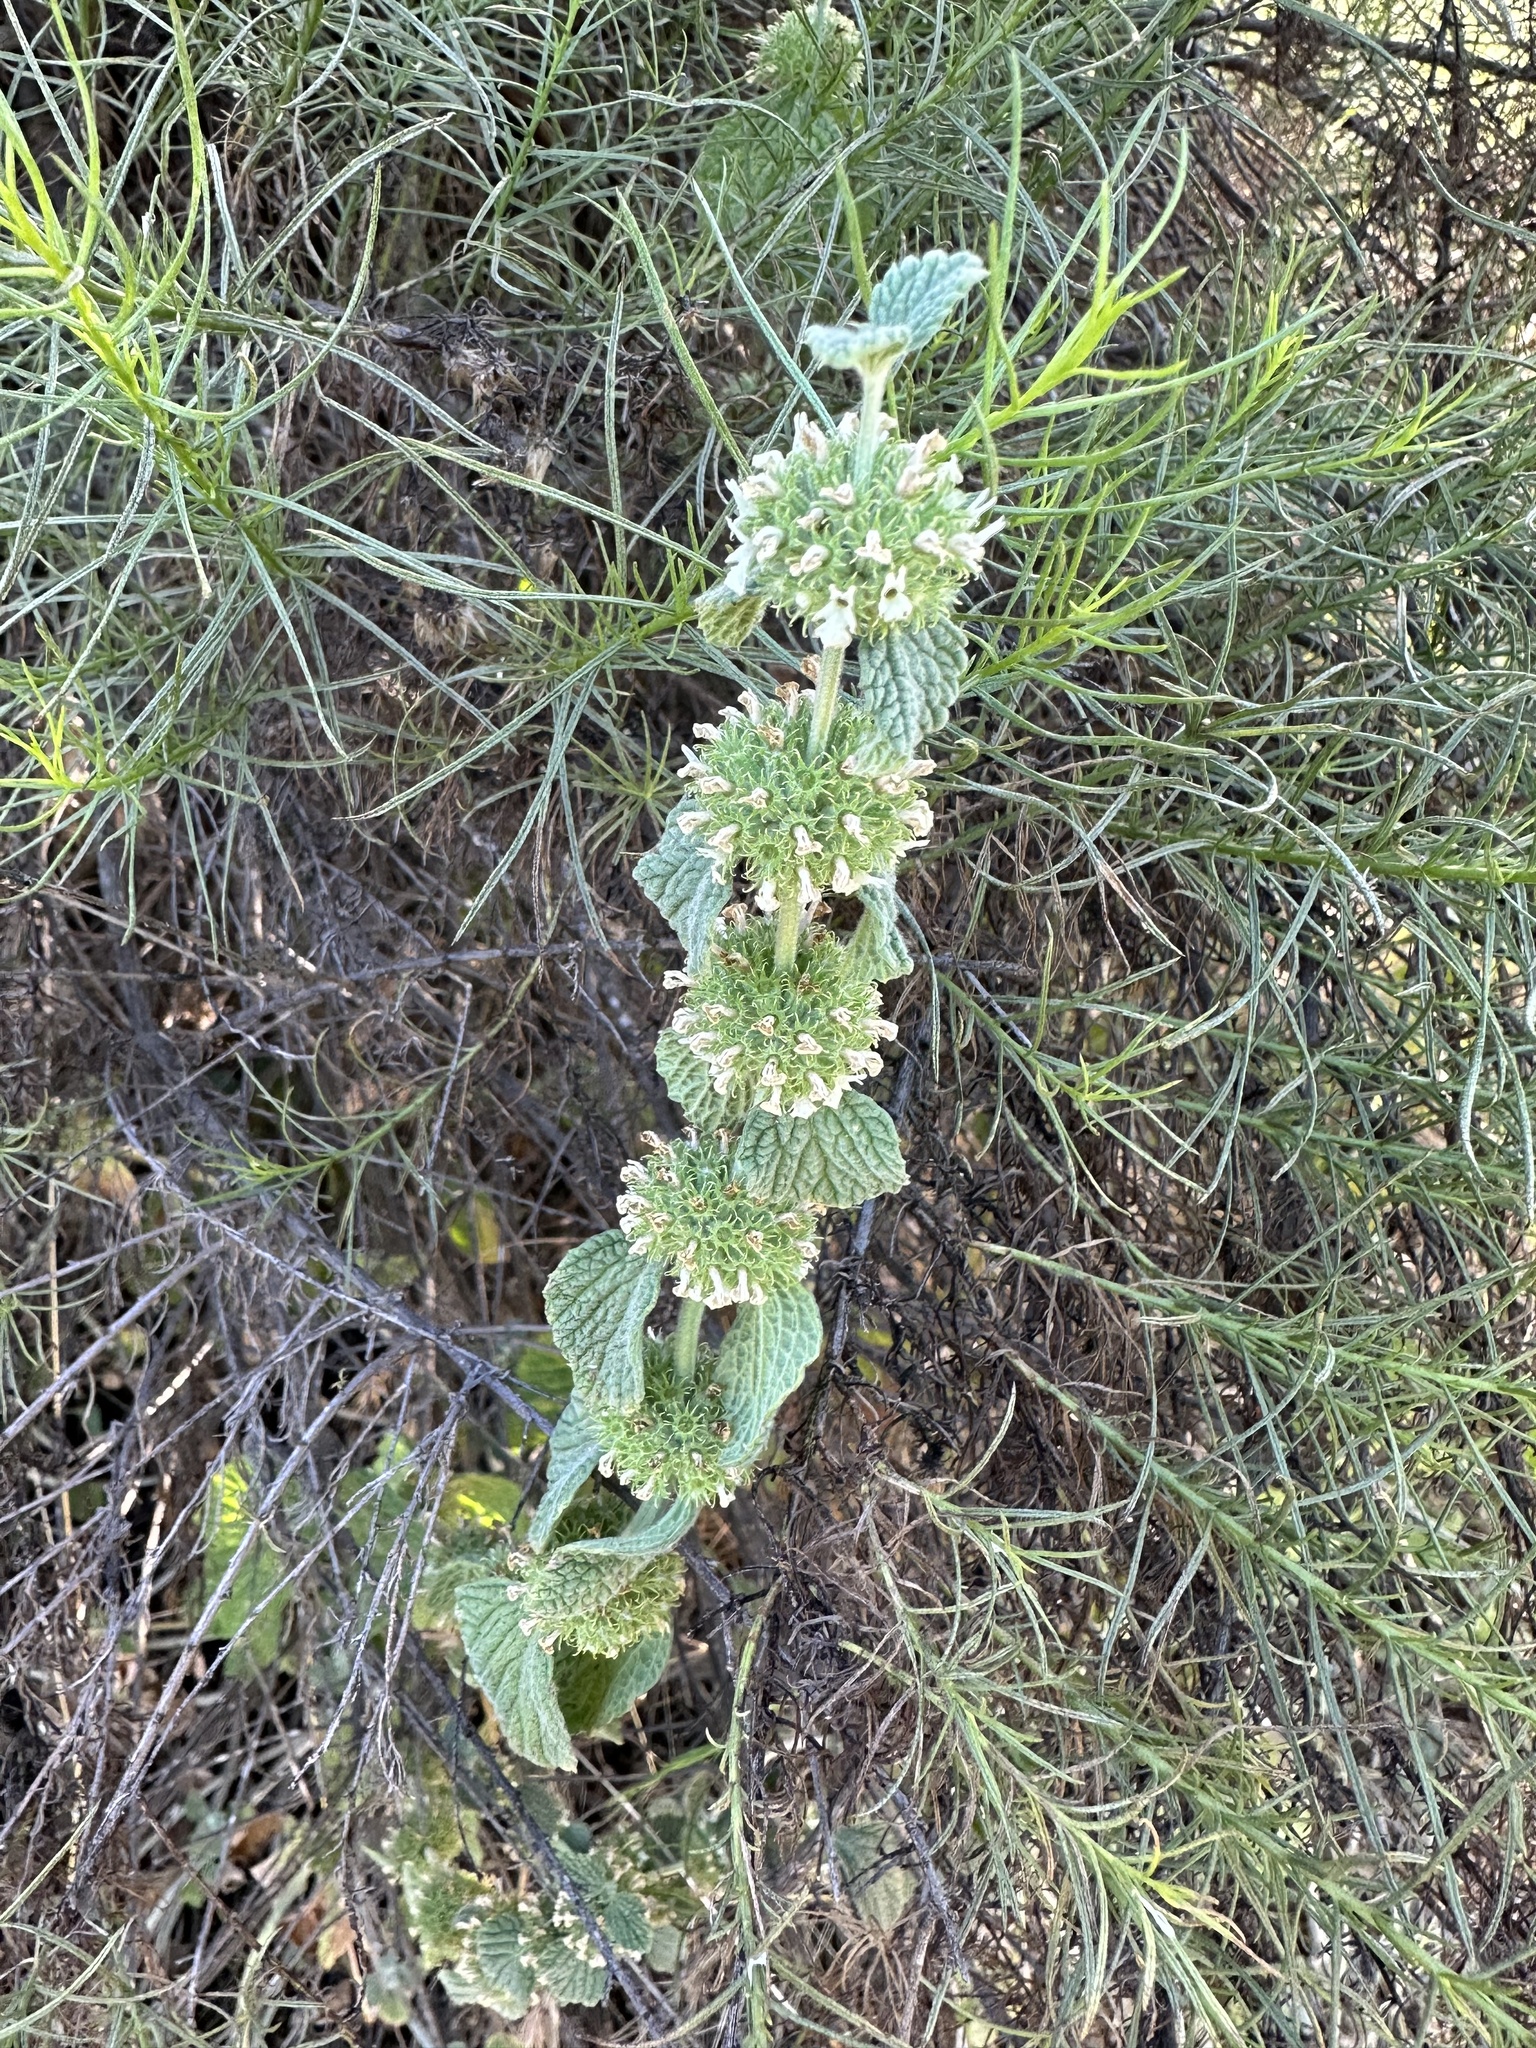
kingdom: Plantae
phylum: Tracheophyta
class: Magnoliopsida
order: Lamiales
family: Lamiaceae
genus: Marrubium
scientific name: Marrubium vulgare
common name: Horehound
